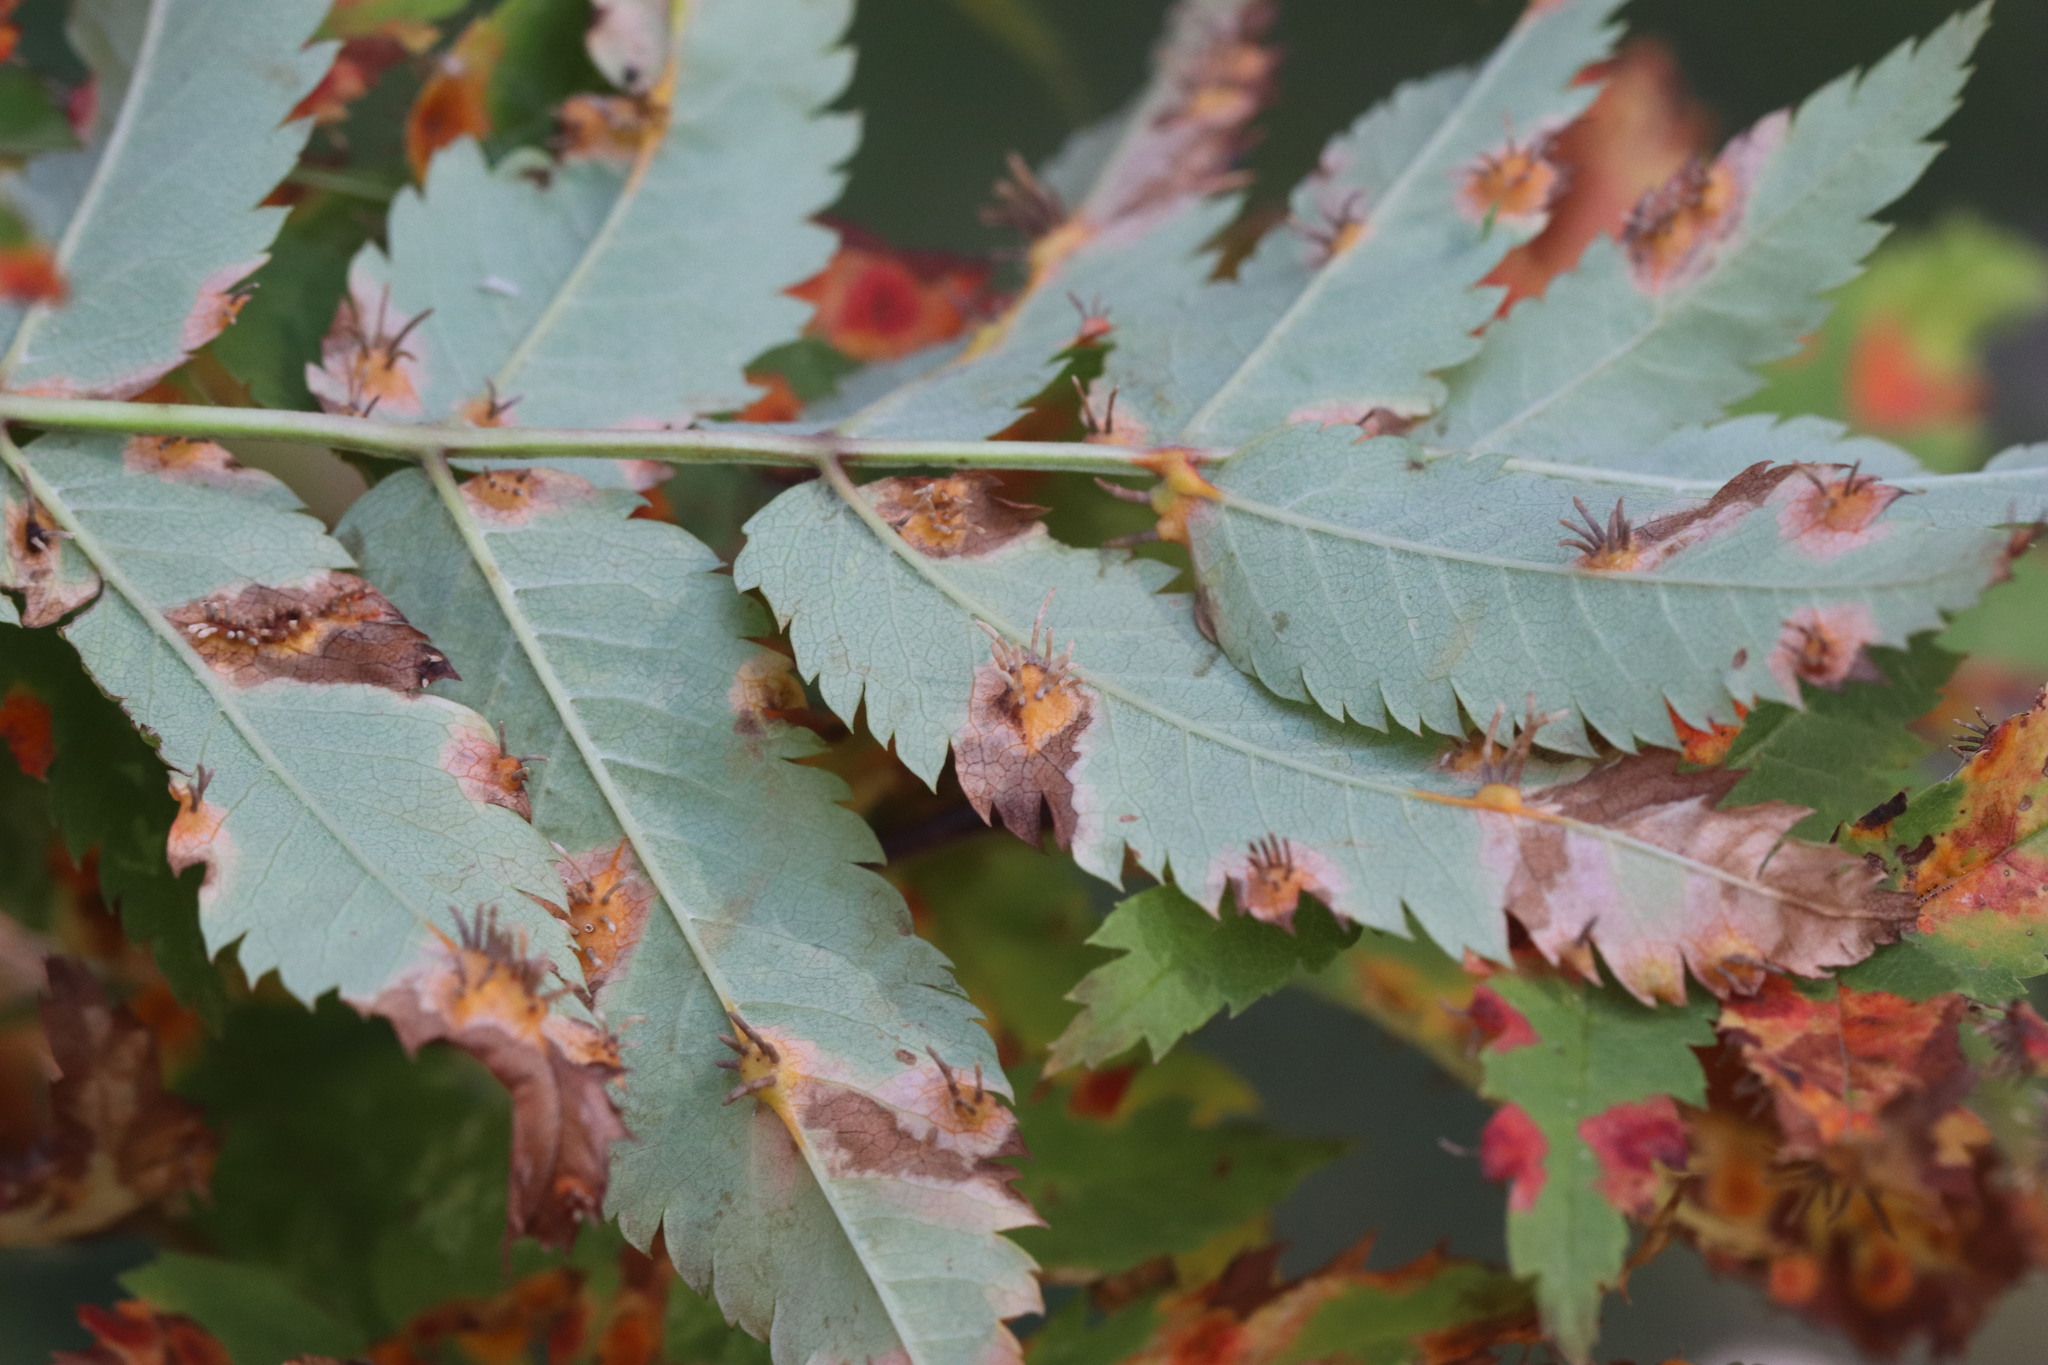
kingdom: Fungi
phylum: Basidiomycota
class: Pucciniomycetes
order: Pucciniales
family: Gymnosporangiaceae
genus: Gymnosporangium
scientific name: Gymnosporangium cornutum
